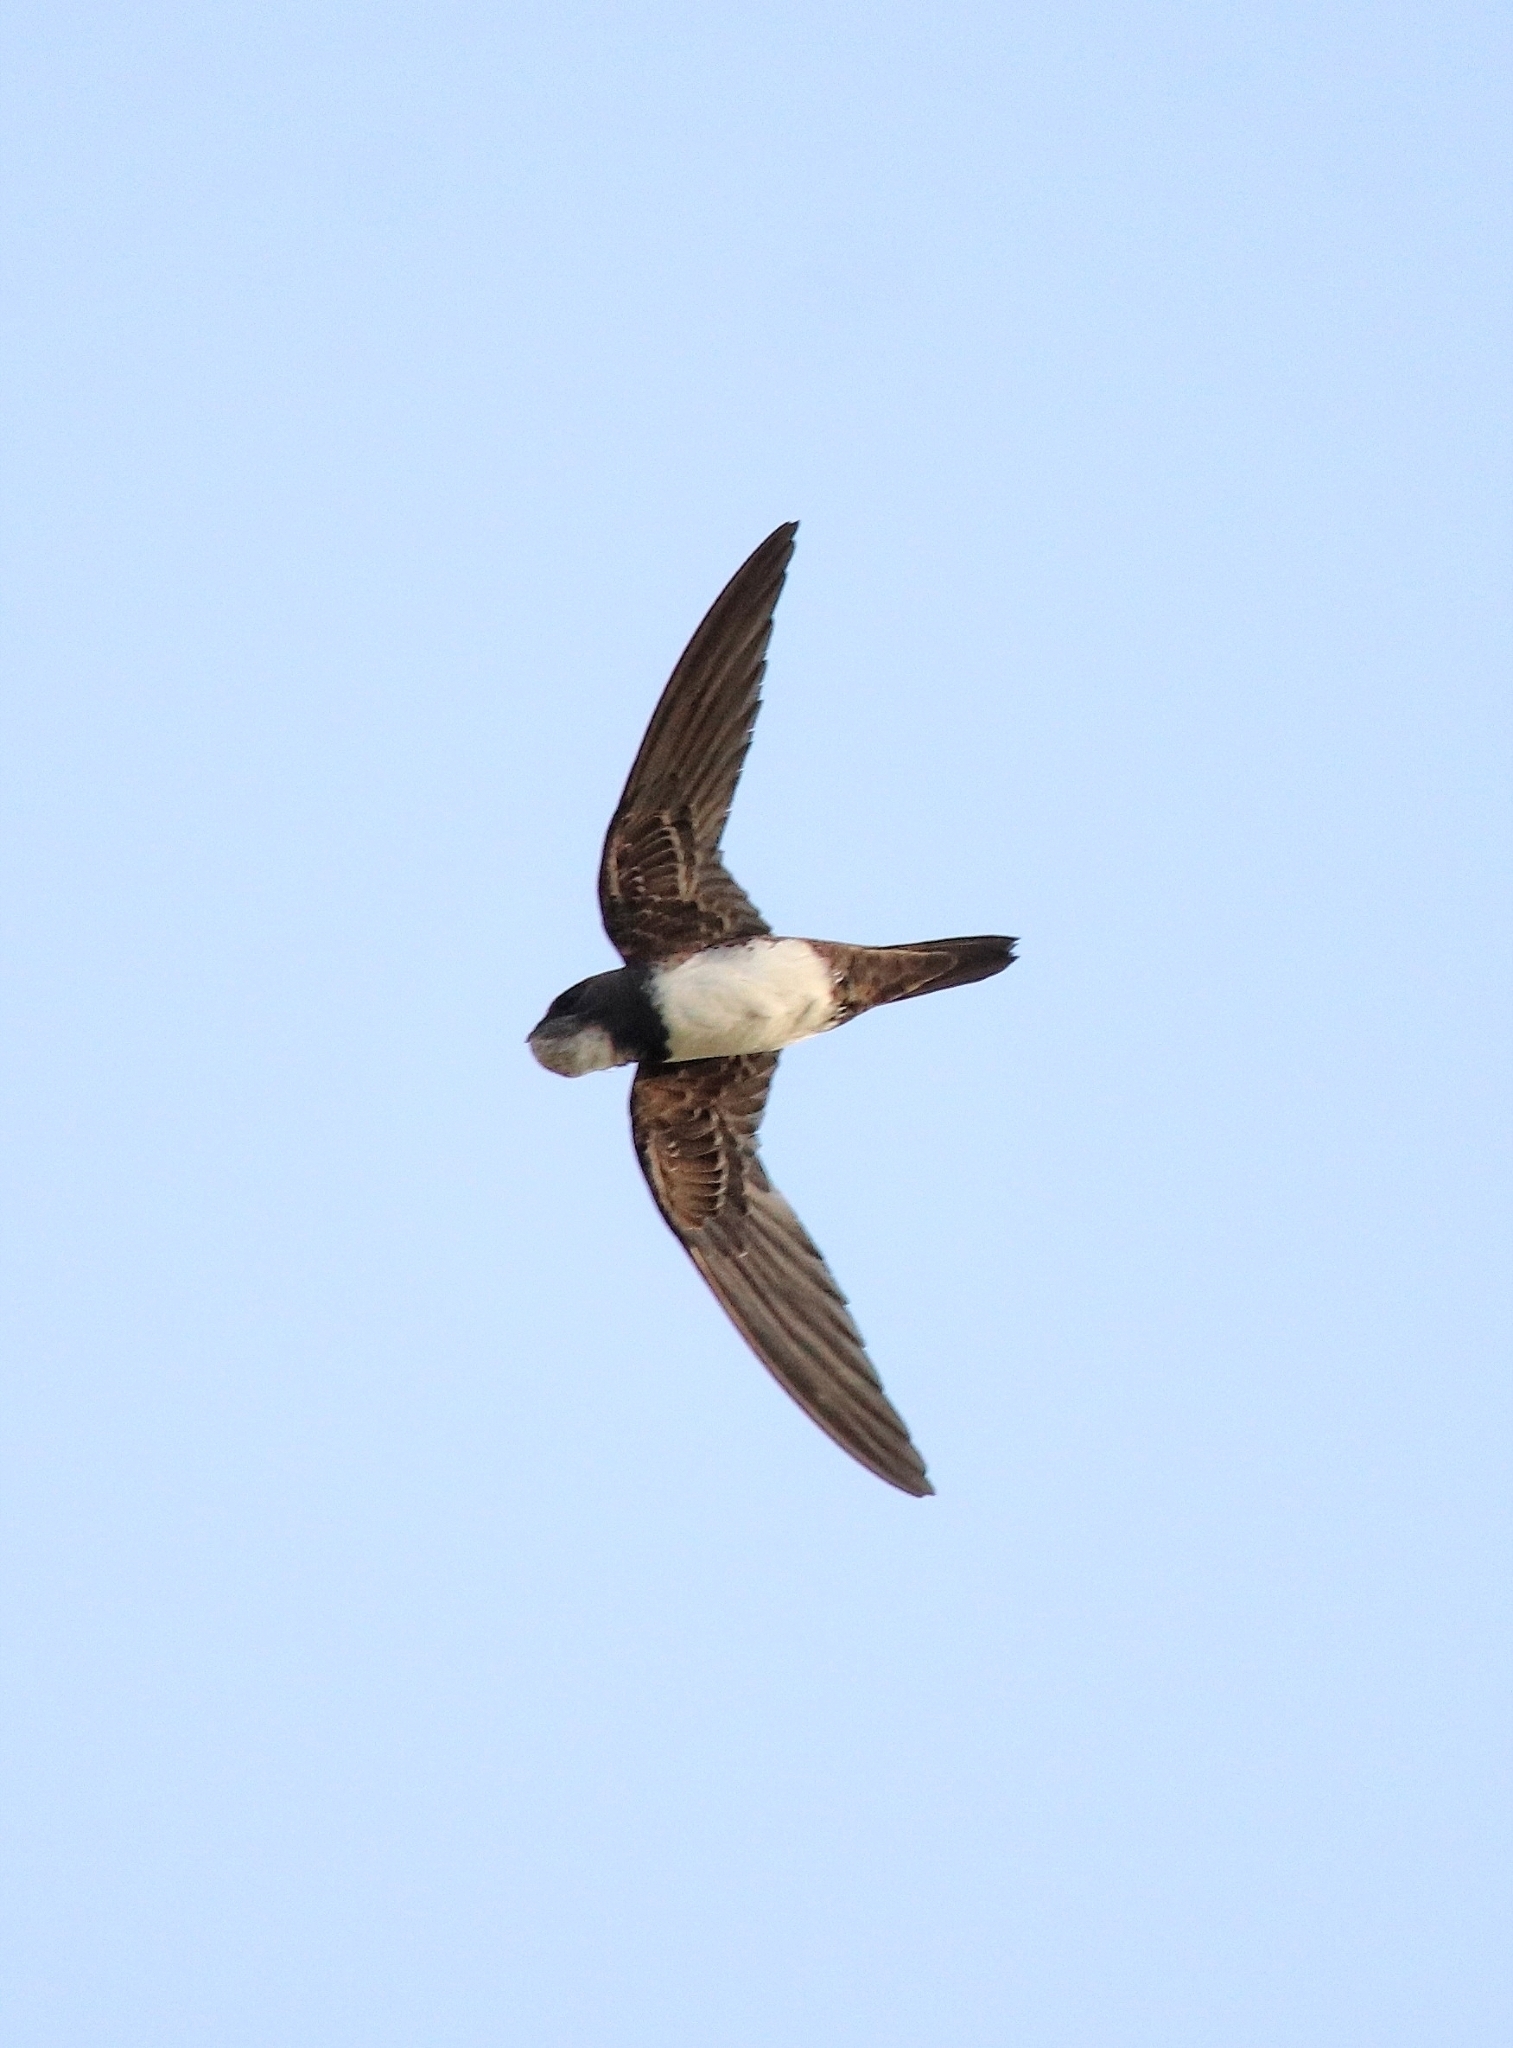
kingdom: Animalia
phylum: Chordata
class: Aves
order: Apodiformes
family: Apodidae
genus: Tachymarptis
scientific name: Tachymarptis melba
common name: Alpine swift
